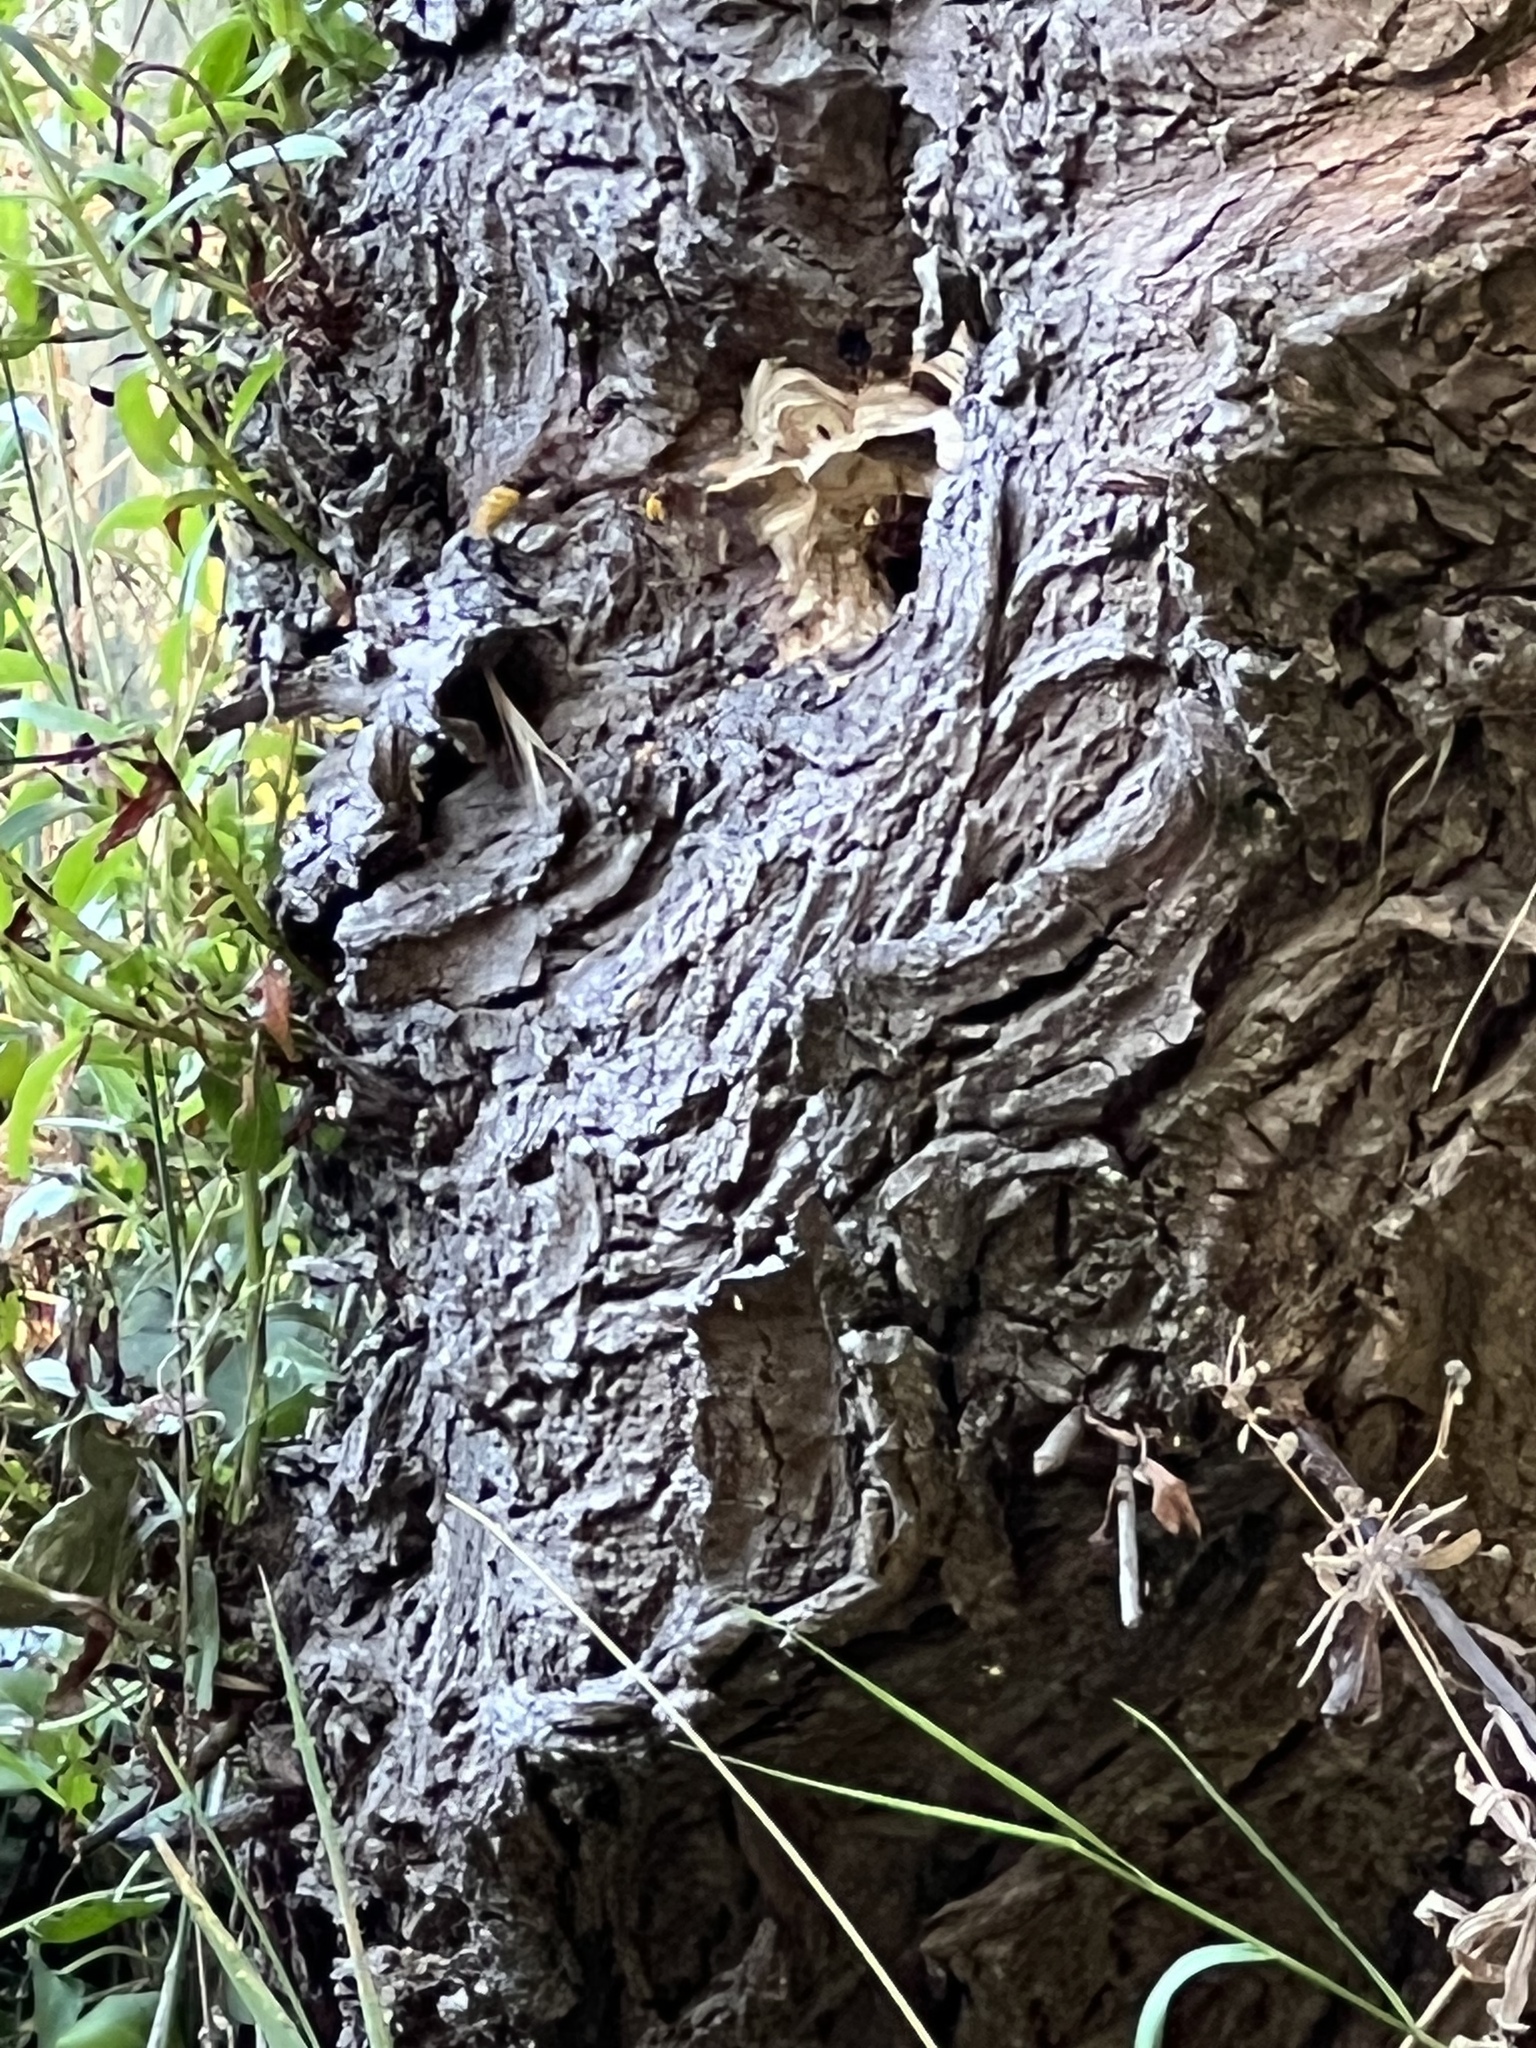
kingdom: Animalia
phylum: Arthropoda
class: Insecta
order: Hymenoptera
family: Vespidae
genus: Vespa
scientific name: Vespa crabro
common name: Hornet
